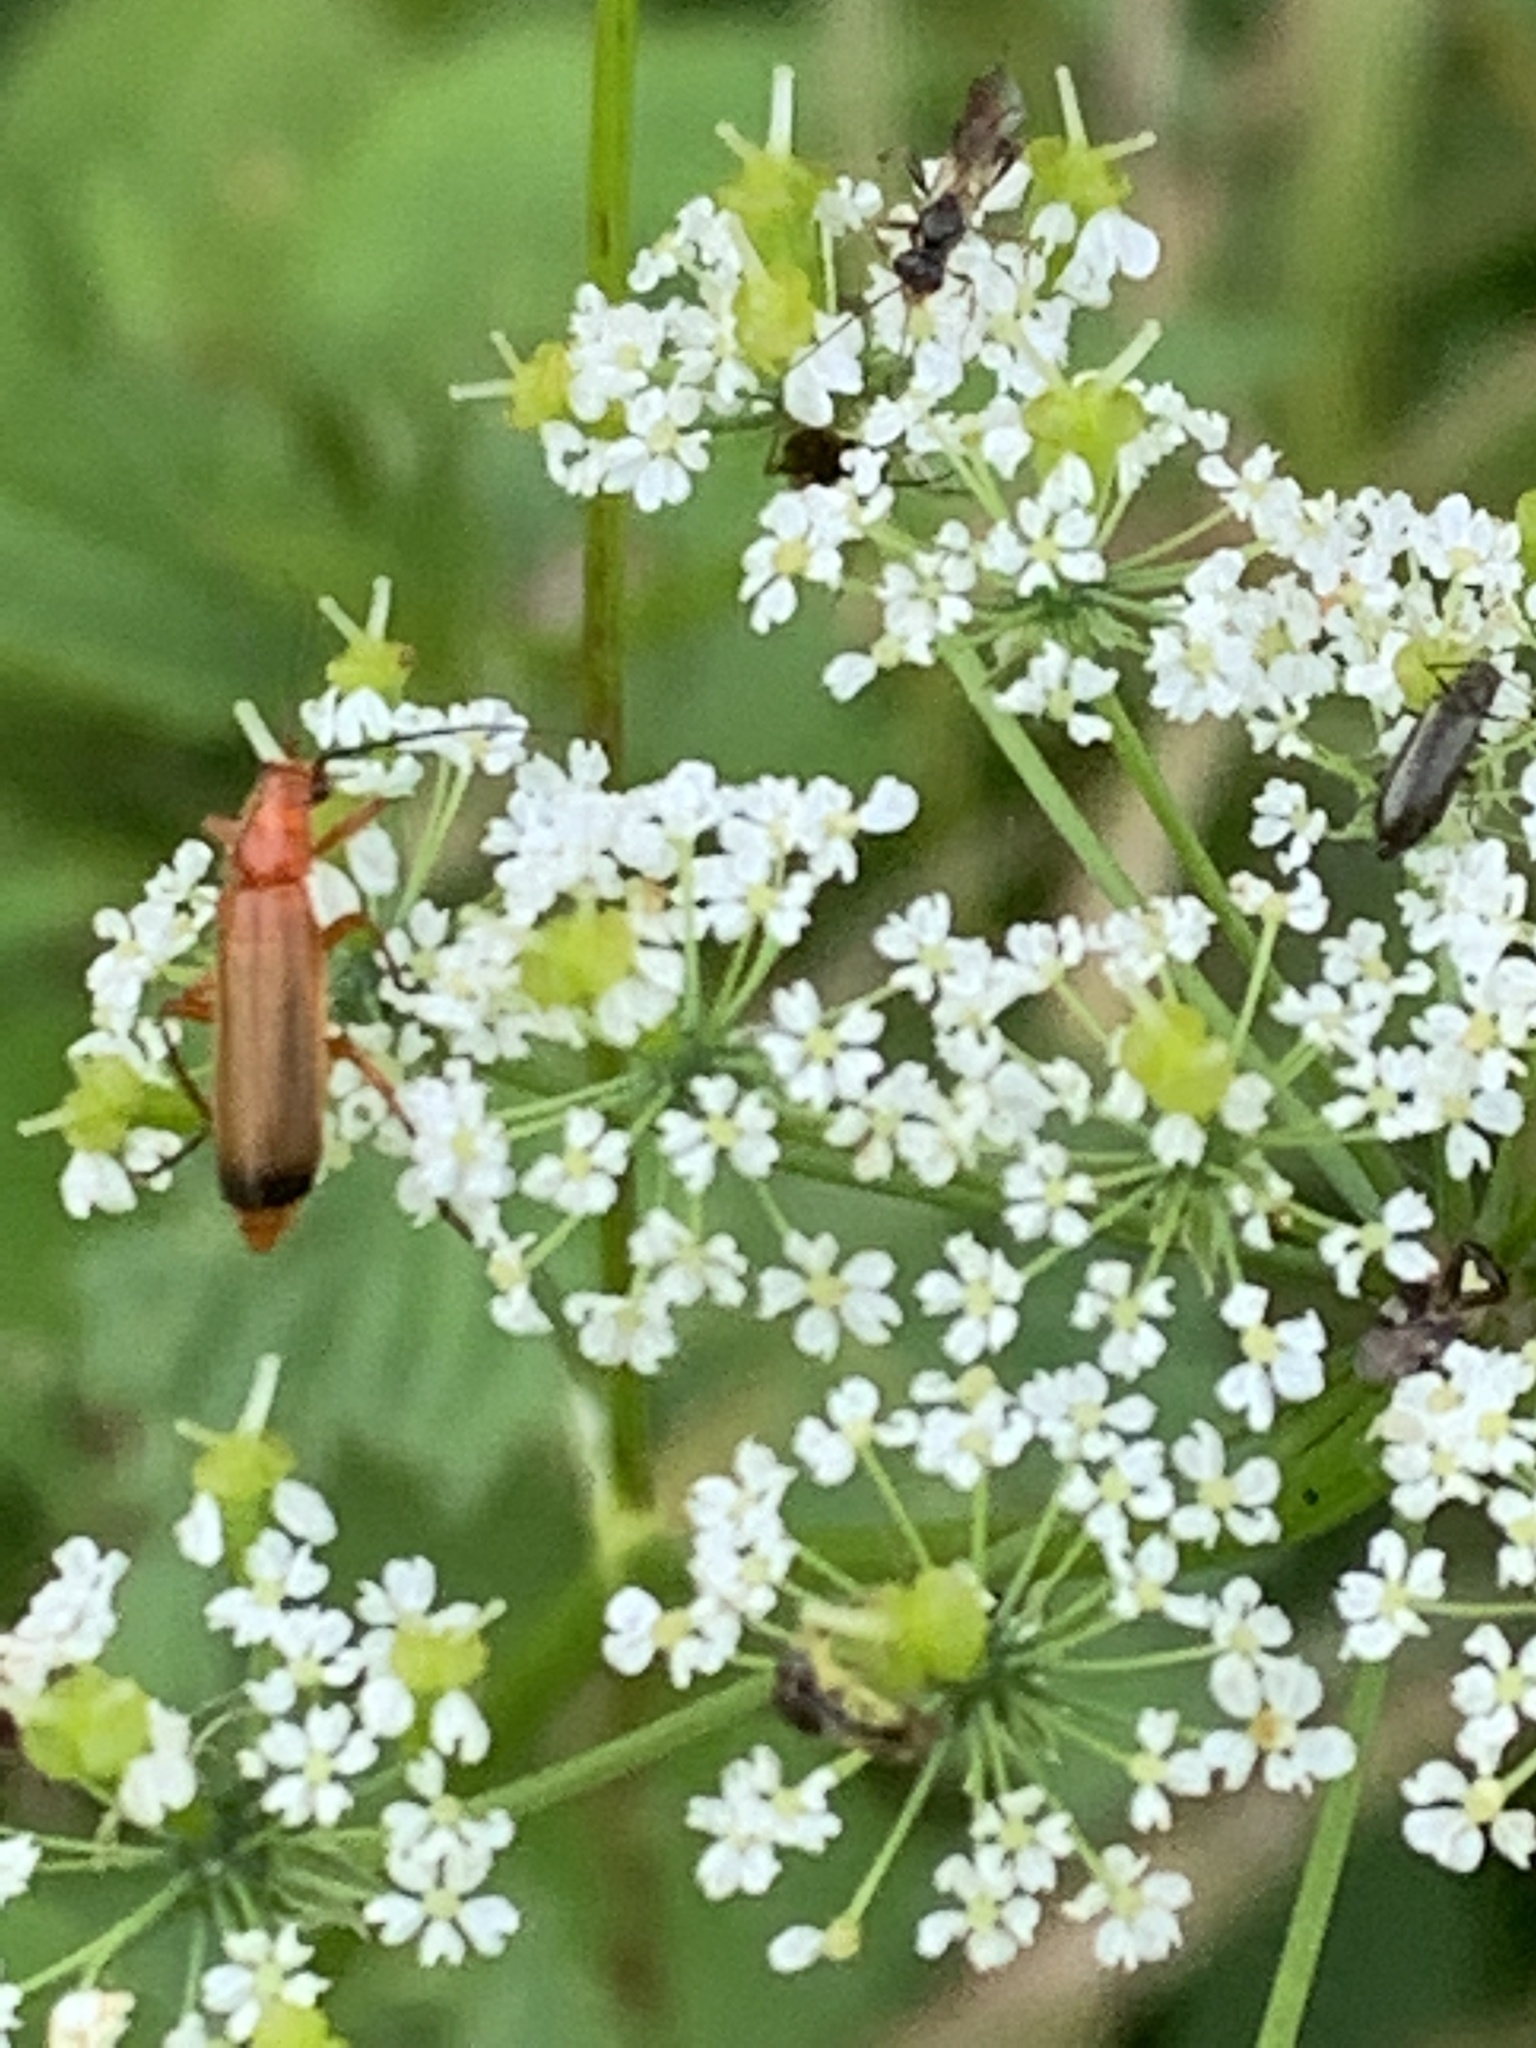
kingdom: Animalia
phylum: Arthropoda
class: Insecta
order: Coleoptera
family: Cantharidae
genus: Rhagonycha
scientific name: Rhagonycha fulva
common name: Common red soldier beetle
